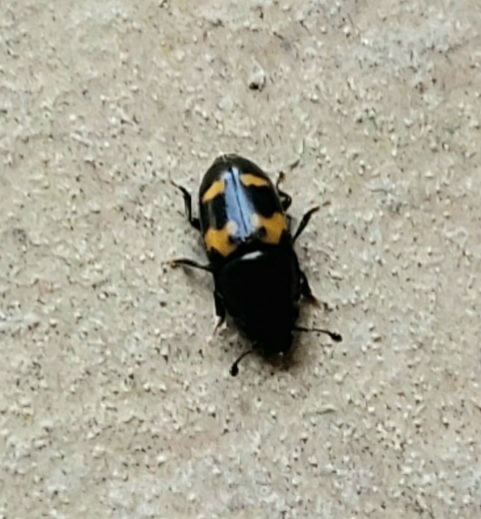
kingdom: Animalia
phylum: Arthropoda
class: Insecta
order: Coleoptera
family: Nitidulidae
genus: Glischrochilus
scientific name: Glischrochilus fasciatus
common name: Picnic beetle
